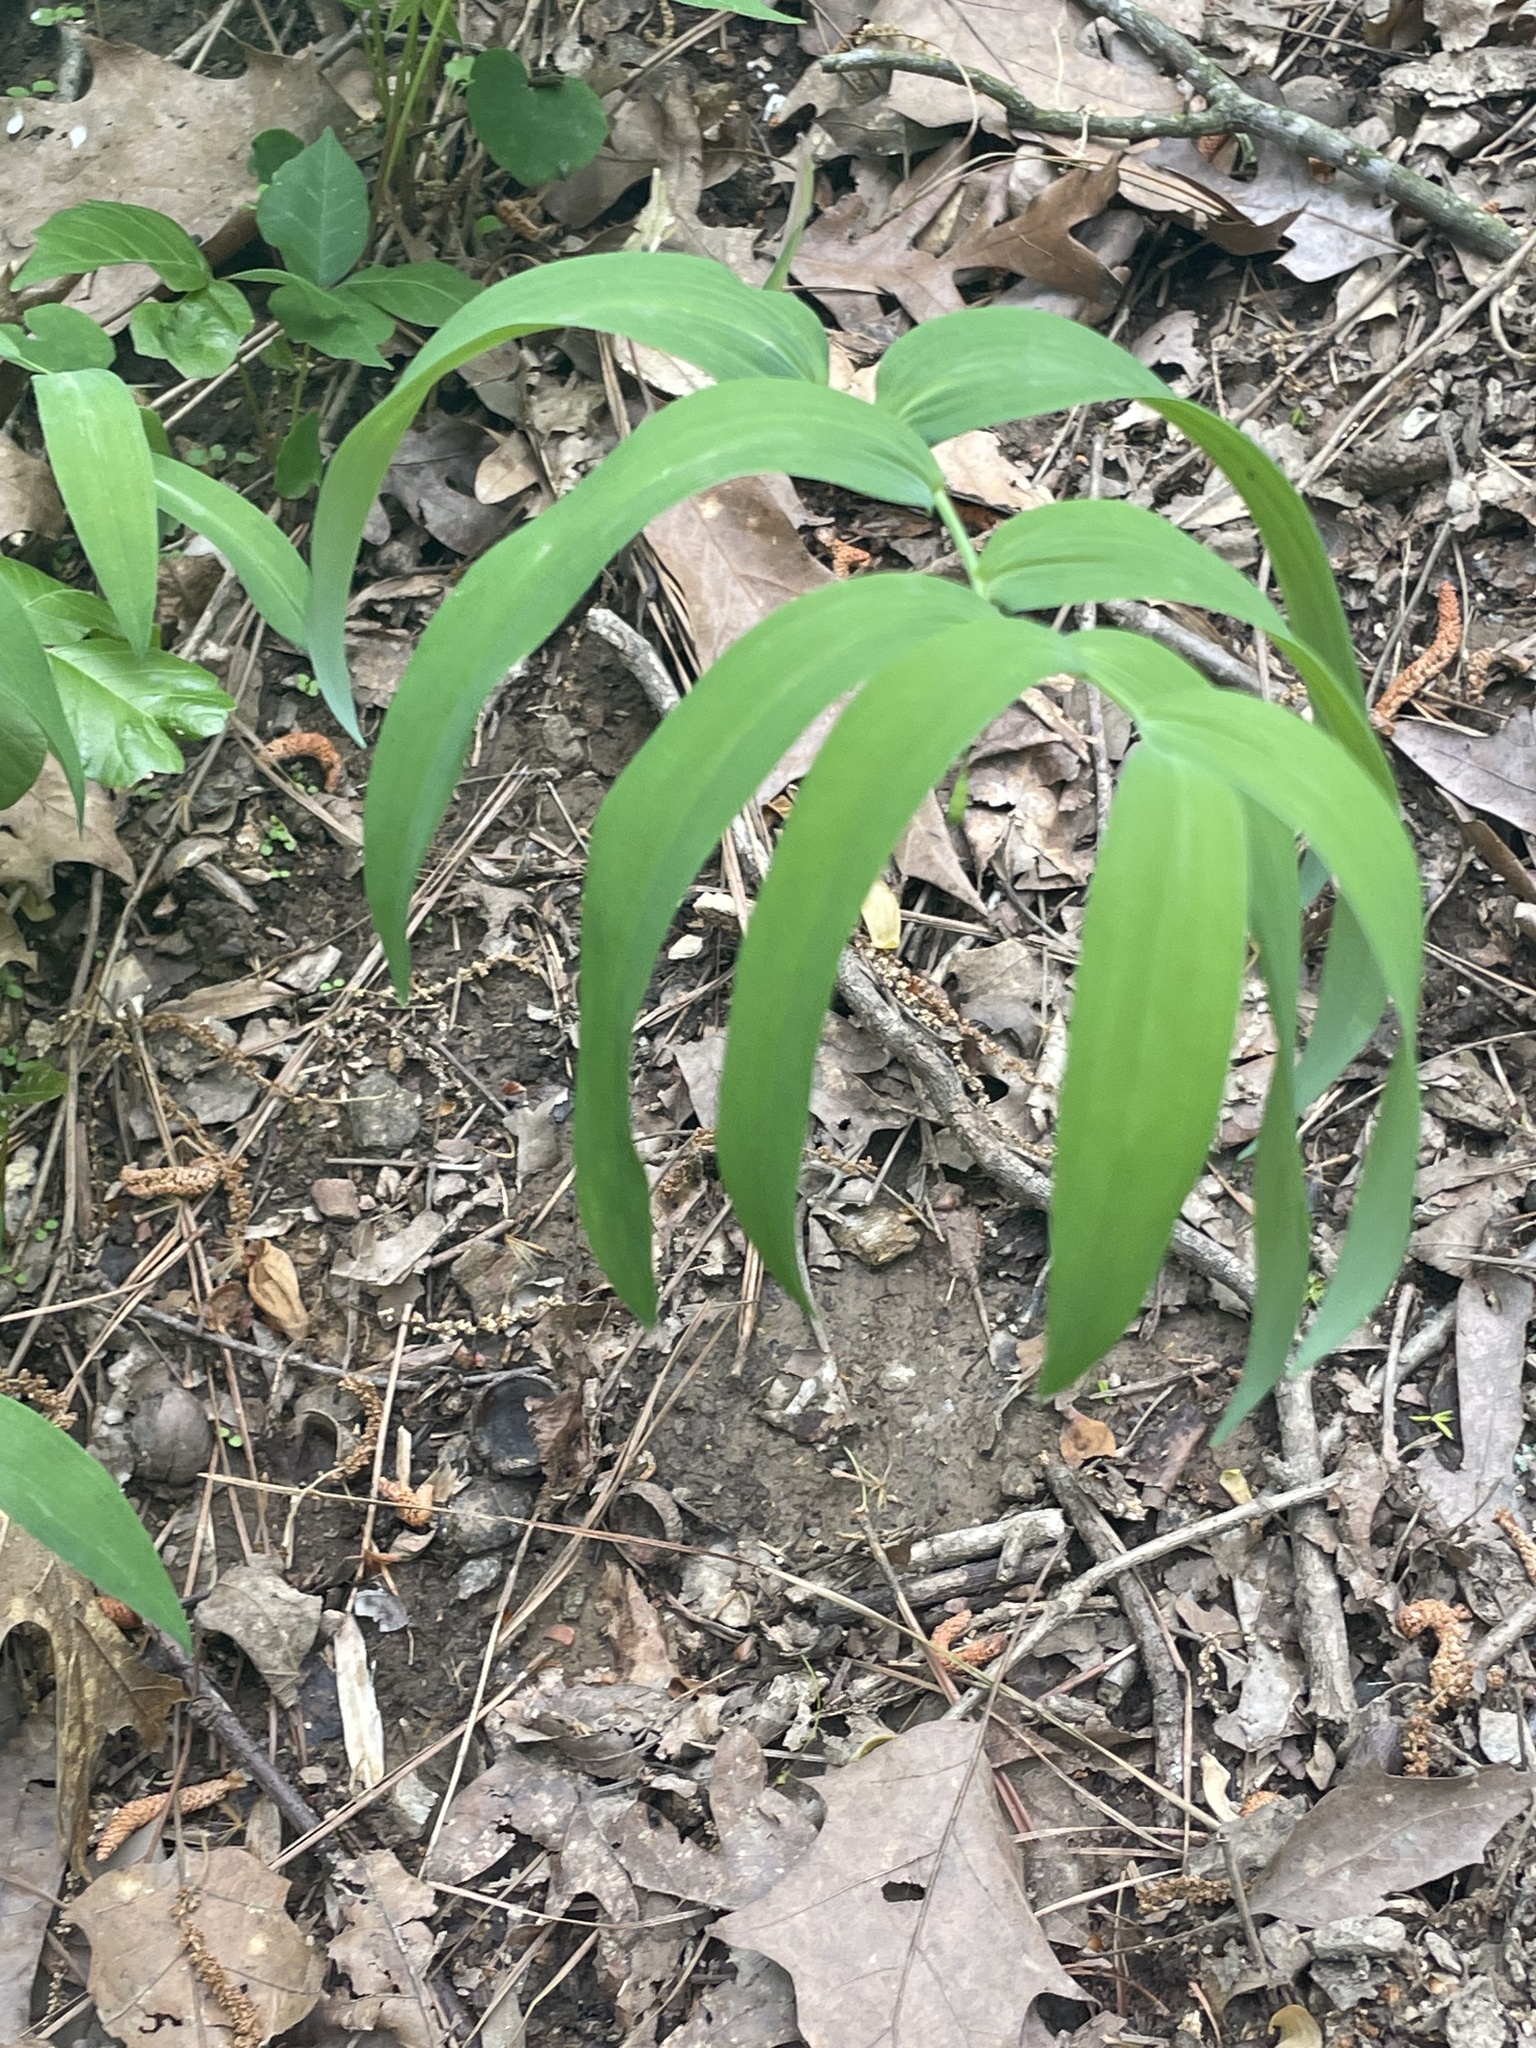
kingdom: Plantae
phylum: Tracheophyta
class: Liliopsida
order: Asparagales
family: Asparagaceae
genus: Polygonatum
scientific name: Polygonatum biflorum
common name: American solomon's-seal
